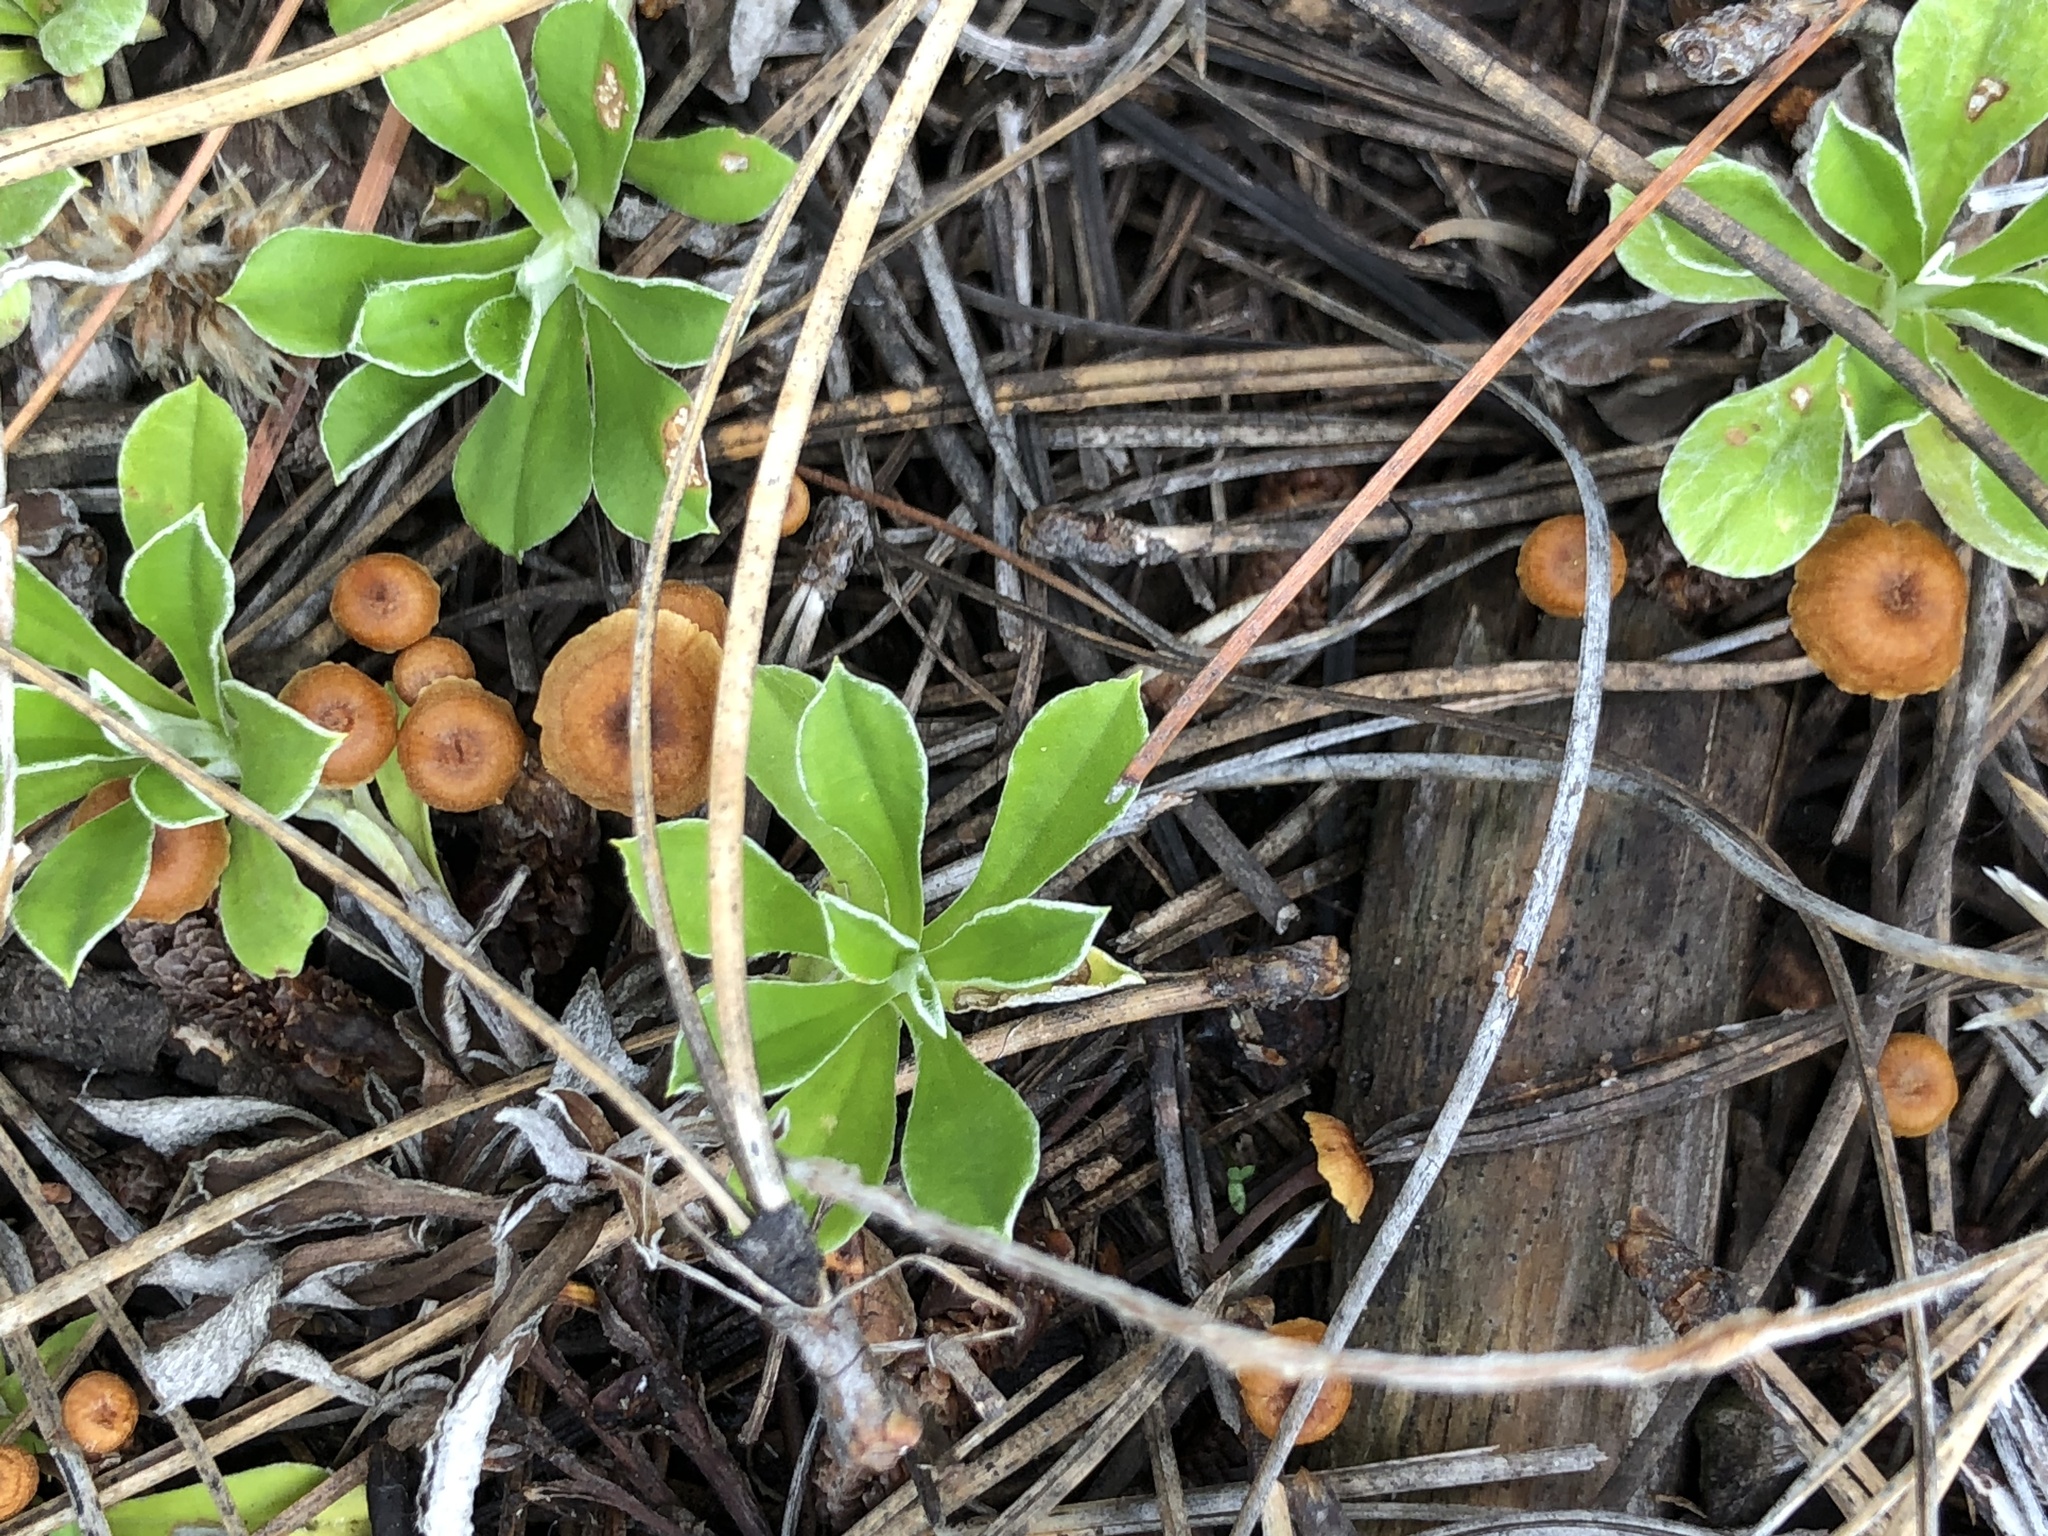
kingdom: Fungi
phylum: Basidiomycota
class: Agaricomycetes
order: Agaricales
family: Mycenaceae
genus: Xeromphalina
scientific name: Xeromphalina cirris
